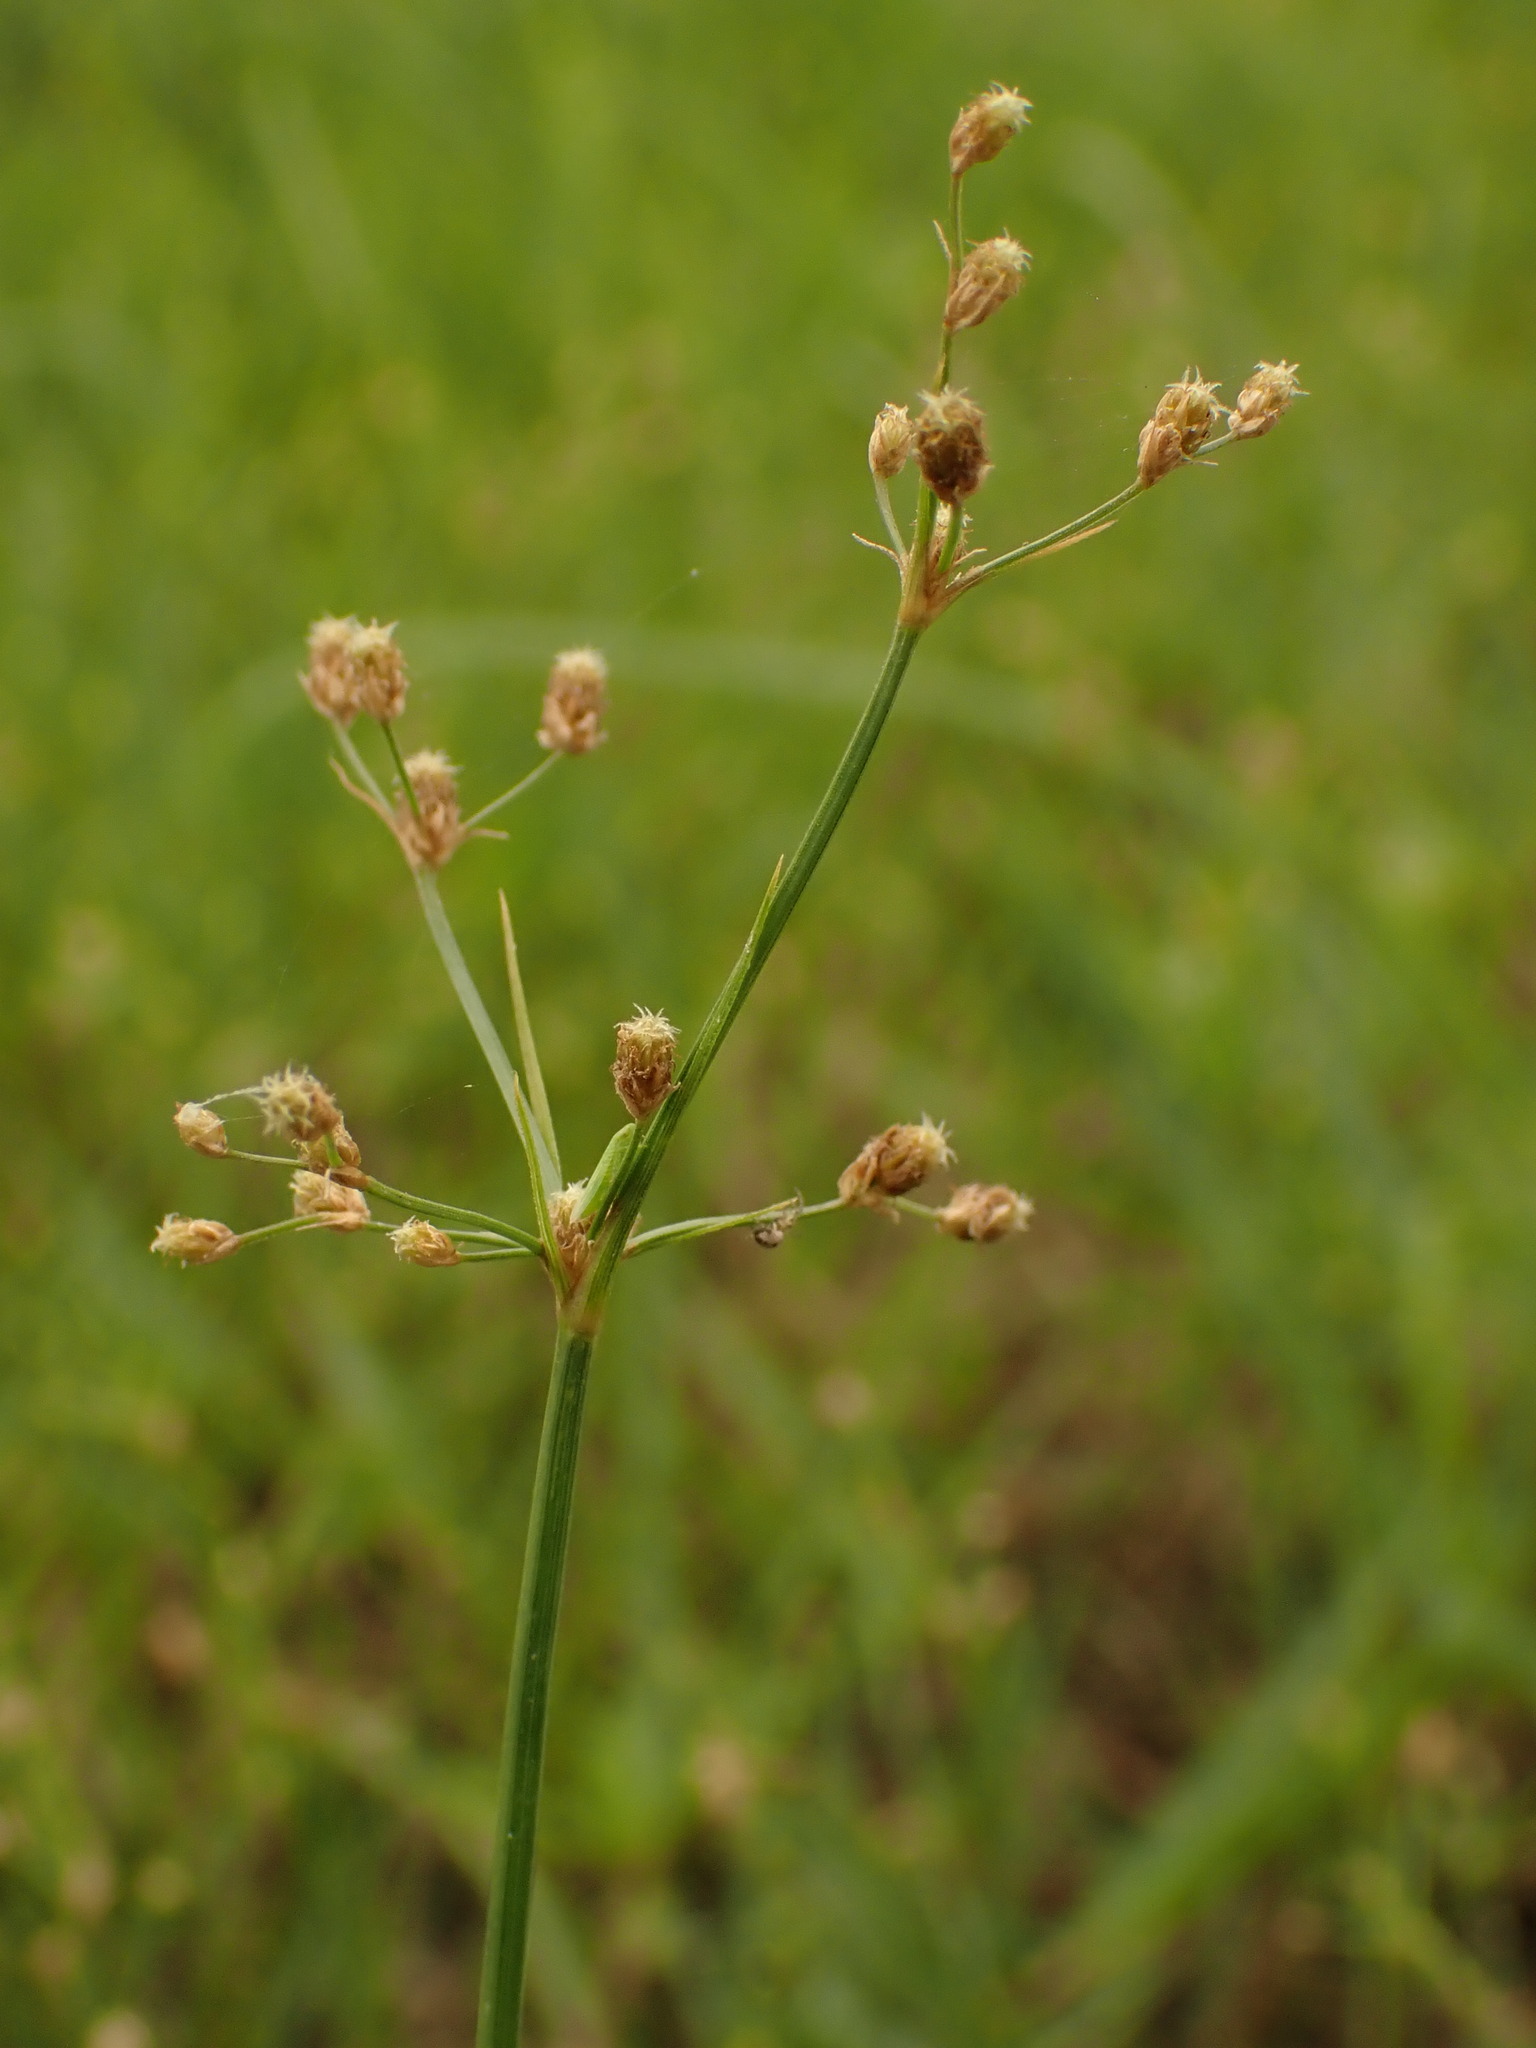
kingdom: Plantae
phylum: Tracheophyta
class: Liliopsida
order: Poales
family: Cyperaceae
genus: Fimbristylis
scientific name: Fimbristylis littoralis
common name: Fimbry
